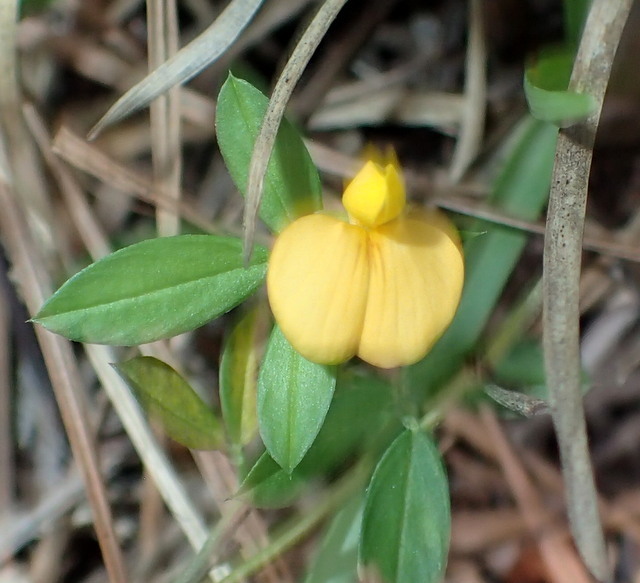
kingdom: Plantae
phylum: Tracheophyta
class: Magnoliopsida
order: Fabales
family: Fabaceae
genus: Stylosanthes
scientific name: Stylosanthes biflora
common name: Two-flower pencil-flower
